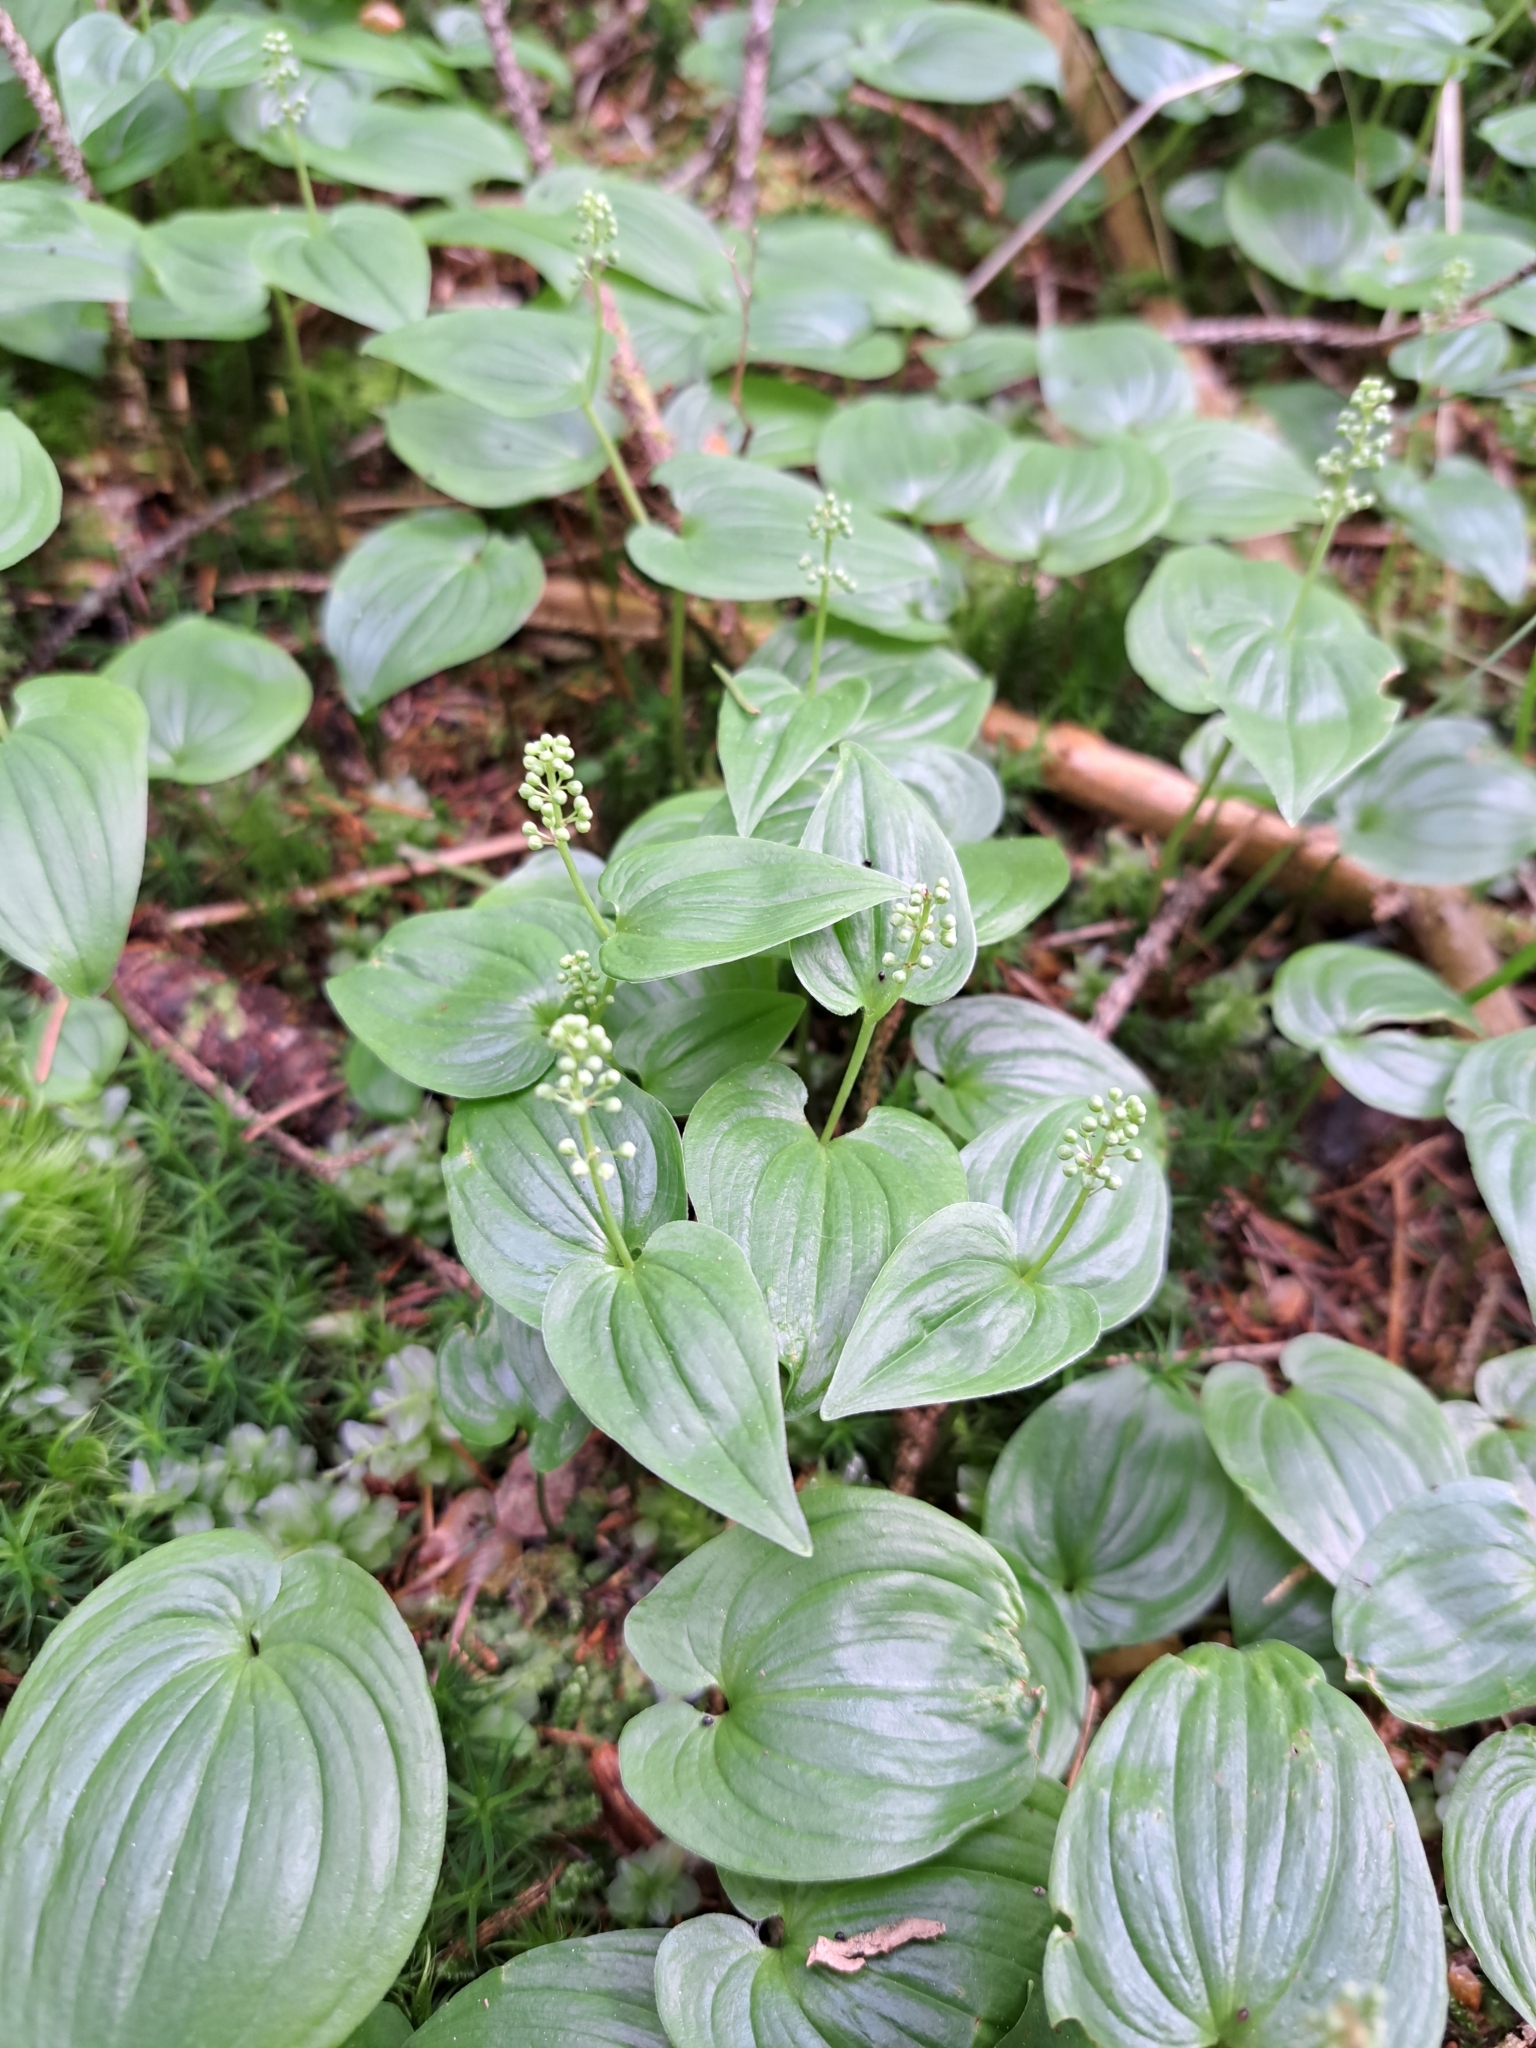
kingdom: Plantae
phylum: Tracheophyta
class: Liliopsida
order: Asparagales
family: Asparagaceae
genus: Maianthemum
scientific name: Maianthemum bifolium
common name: May lily
